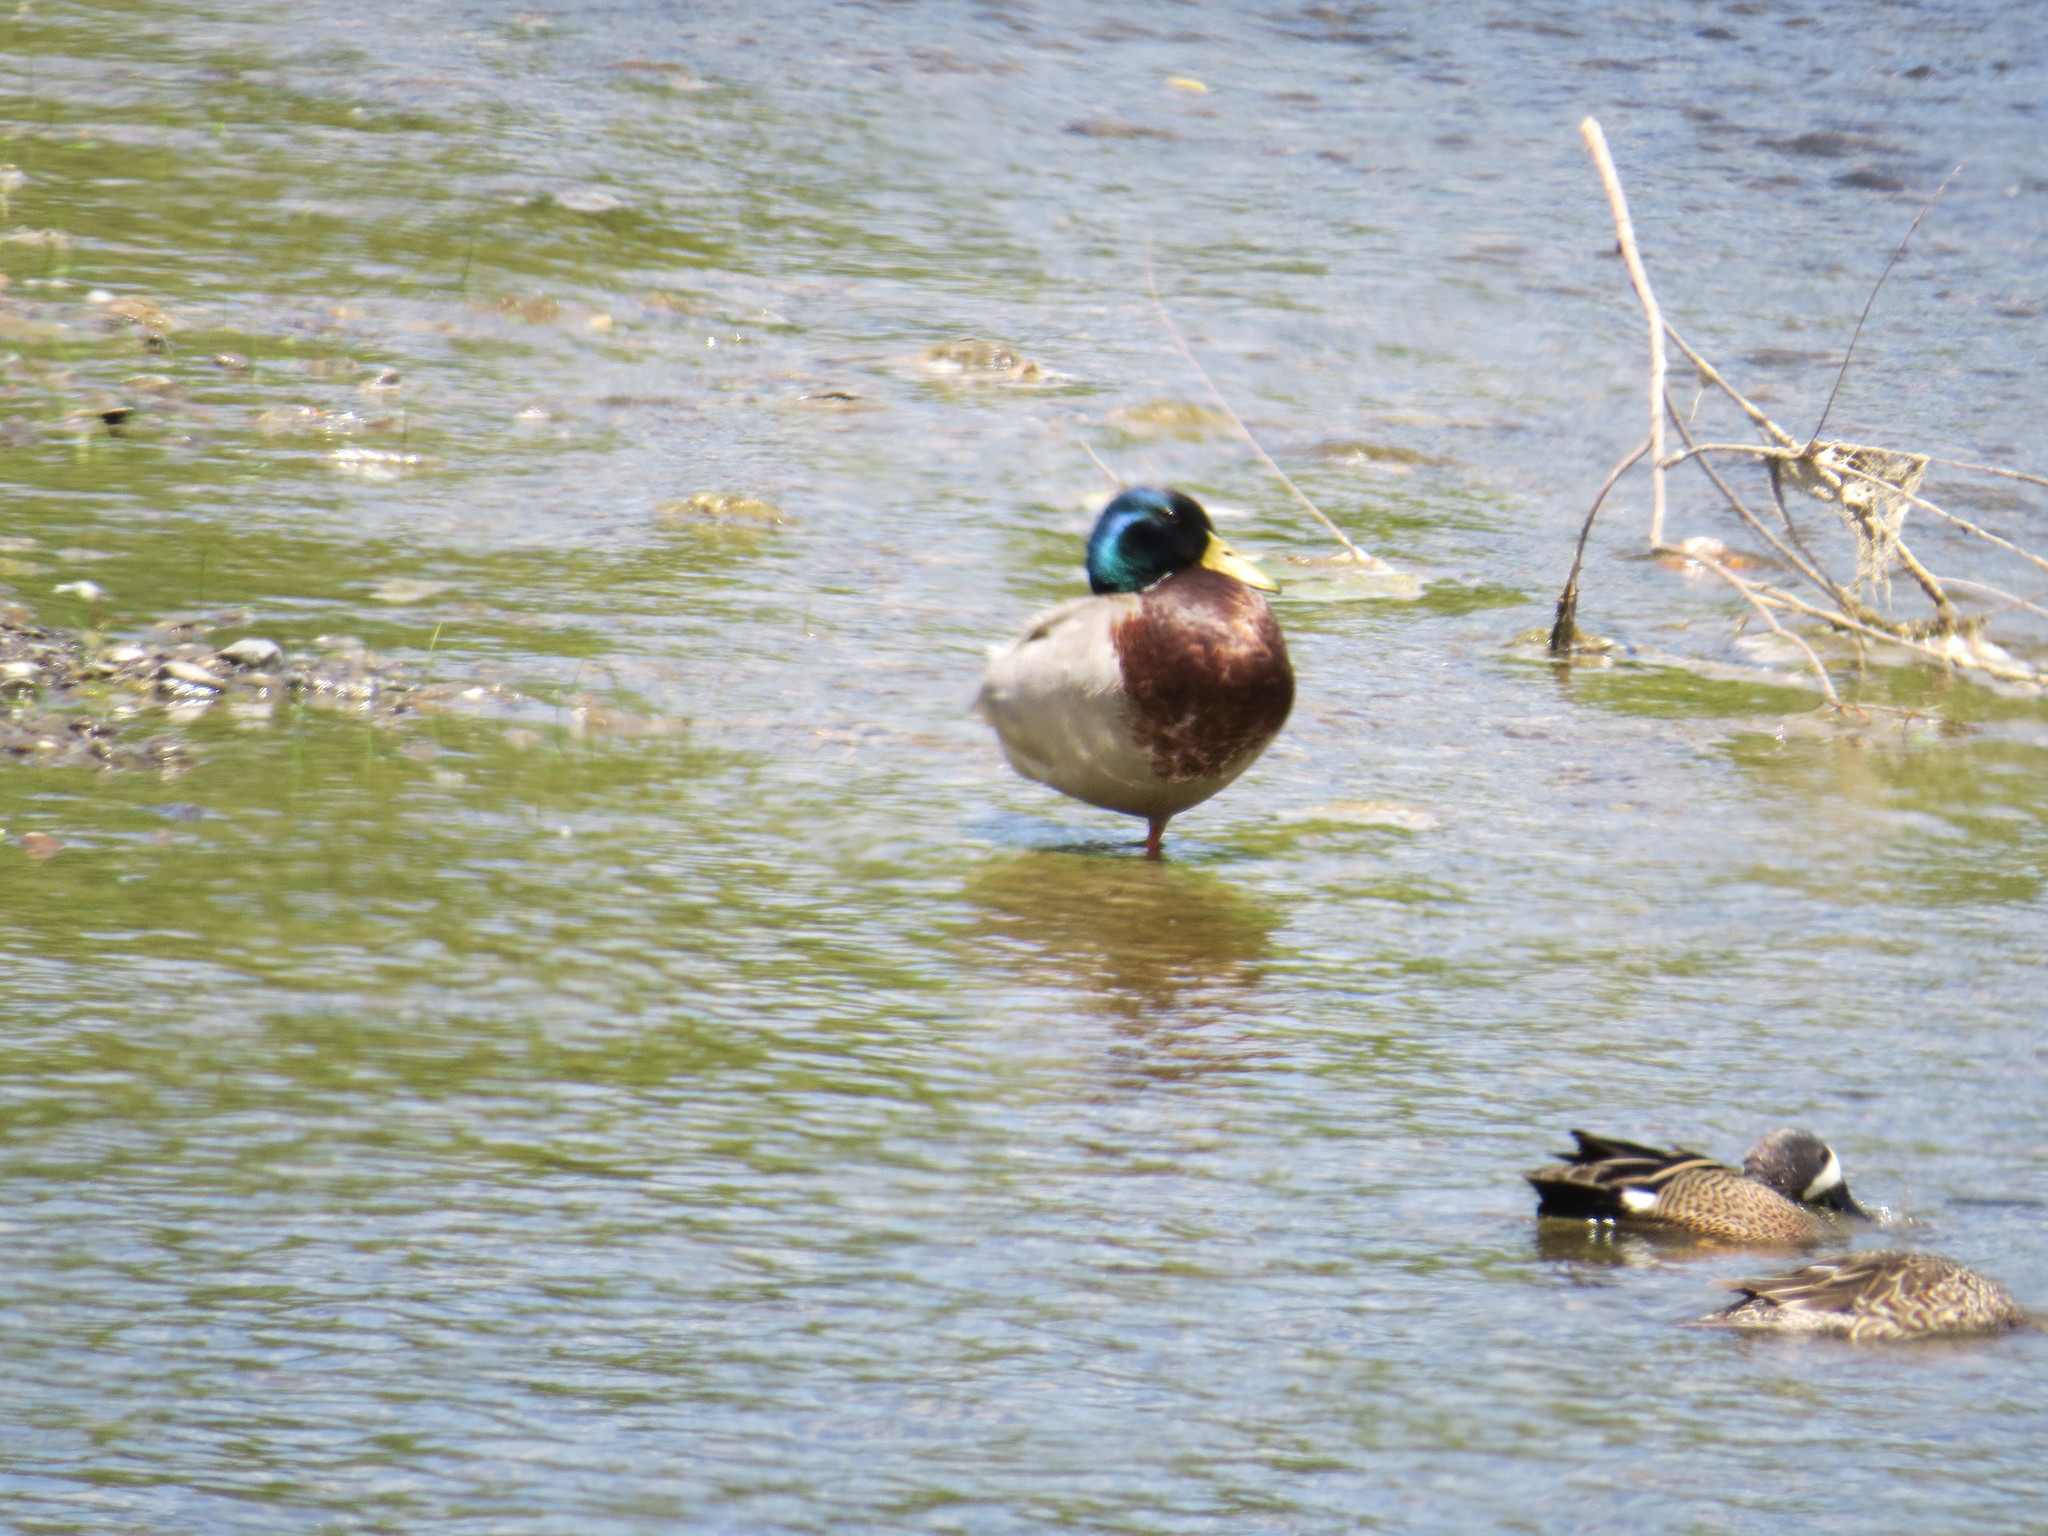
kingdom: Animalia
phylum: Chordata
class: Aves
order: Anseriformes
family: Anatidae
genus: Anas
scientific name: Anas platyrhynchos
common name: Mallard
